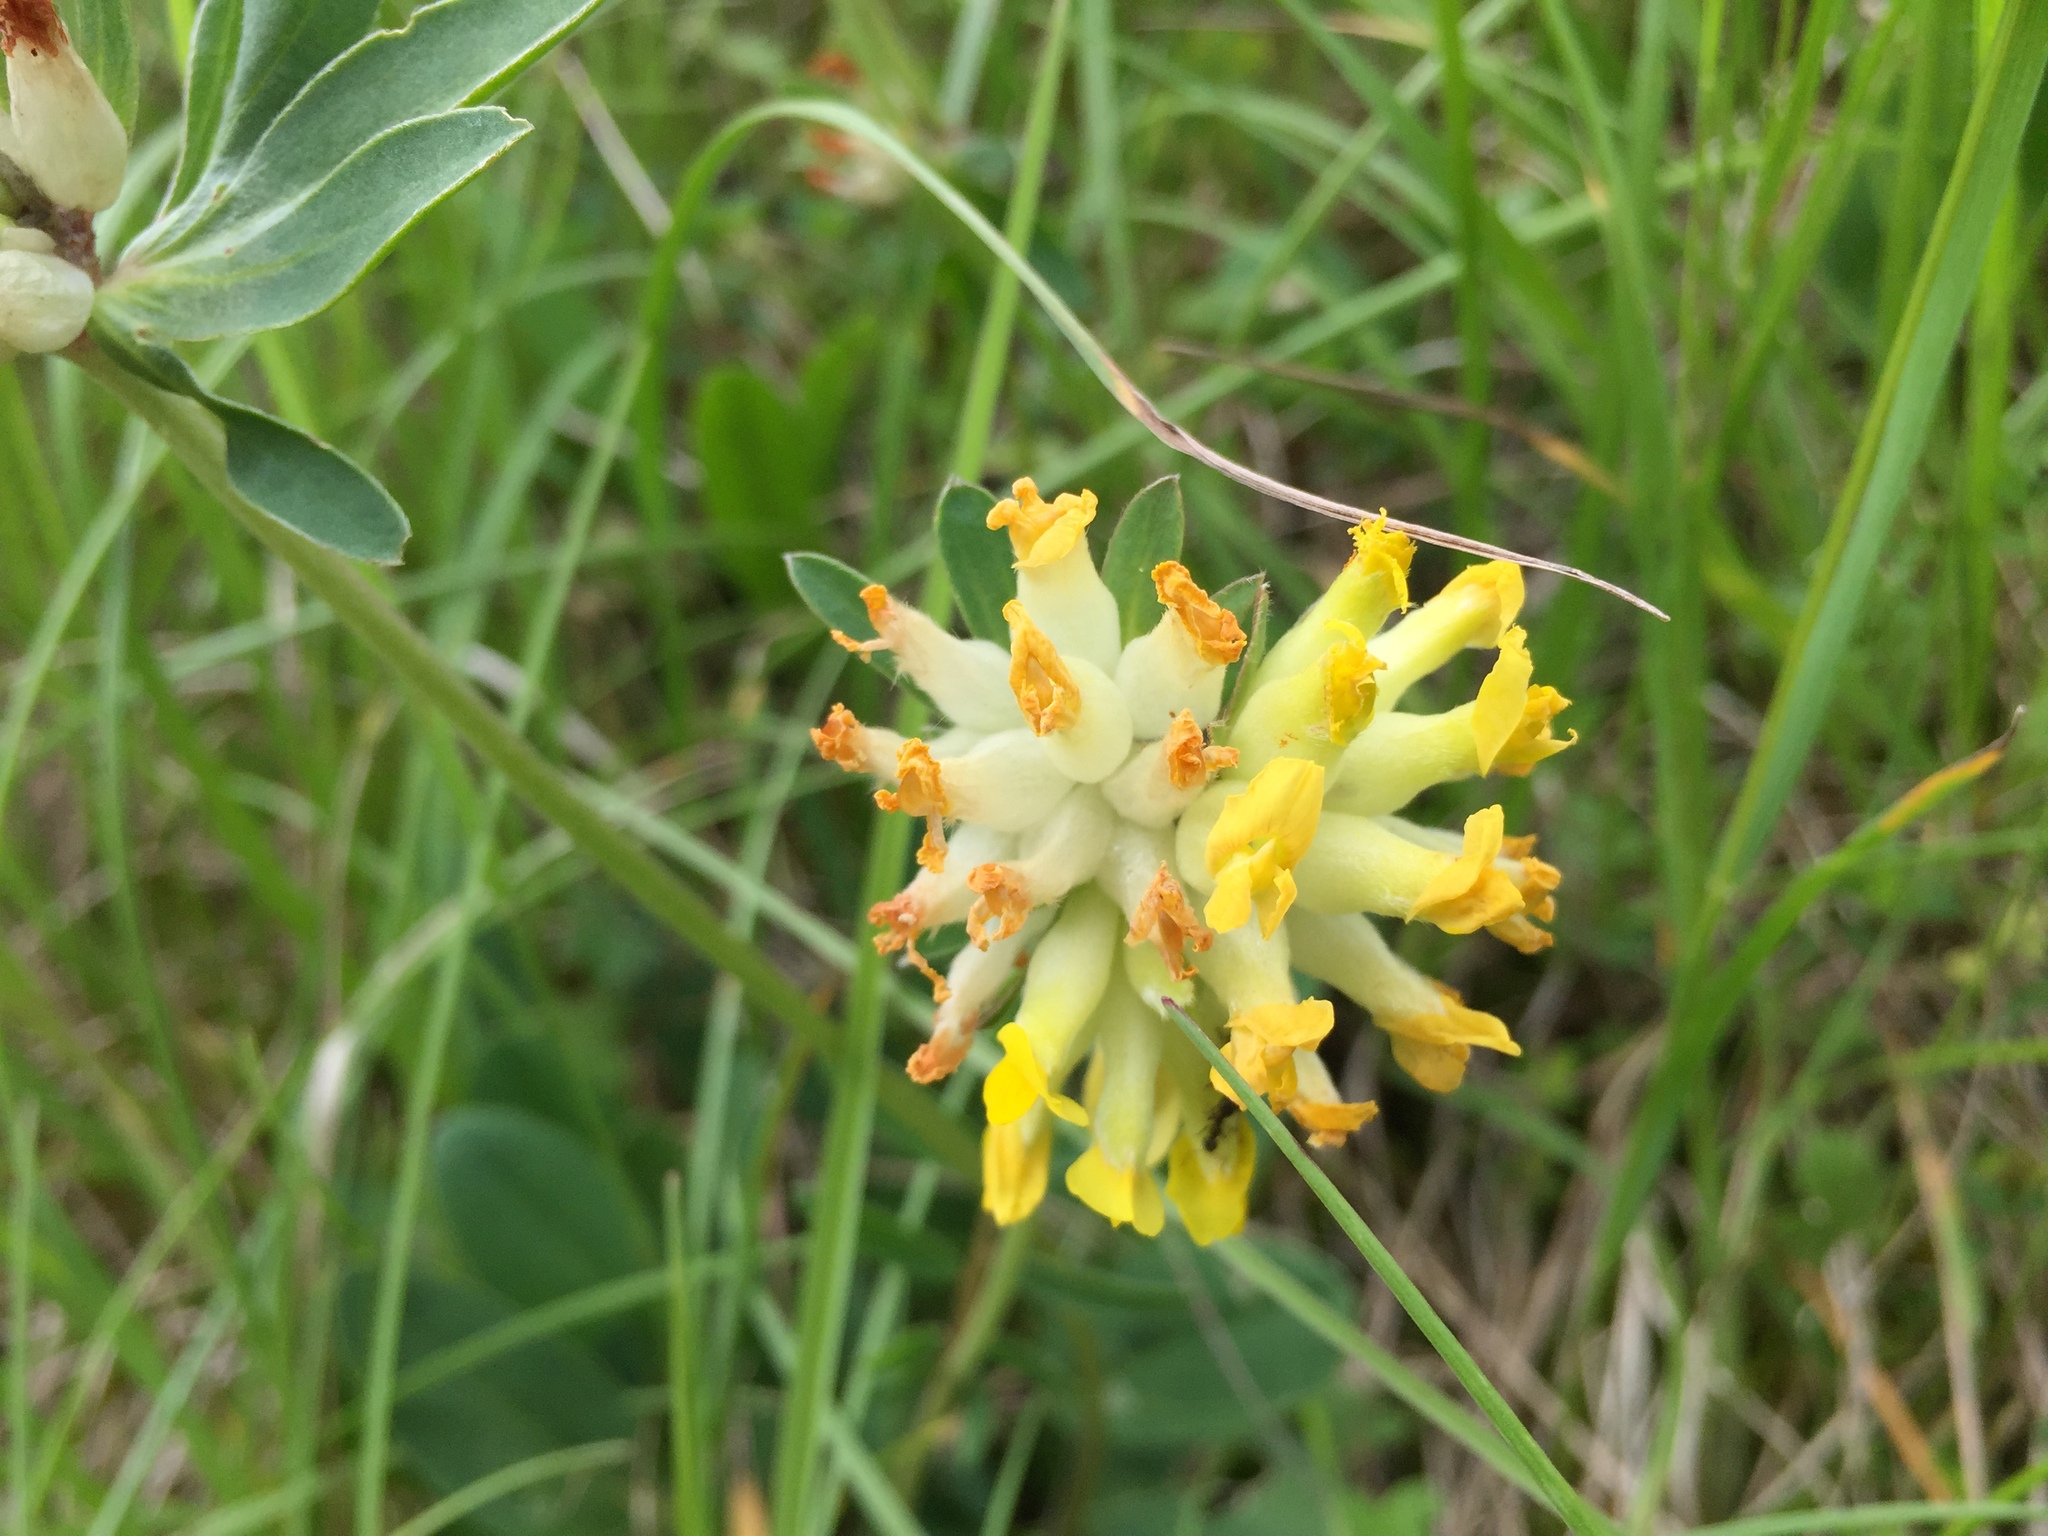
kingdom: Plantae
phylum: Tracheophyta
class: Magnoliopsida
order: Fabales
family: Fabaceae
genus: Anthyllis
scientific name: Anthyllis vulneraria
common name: Kidney vetch
